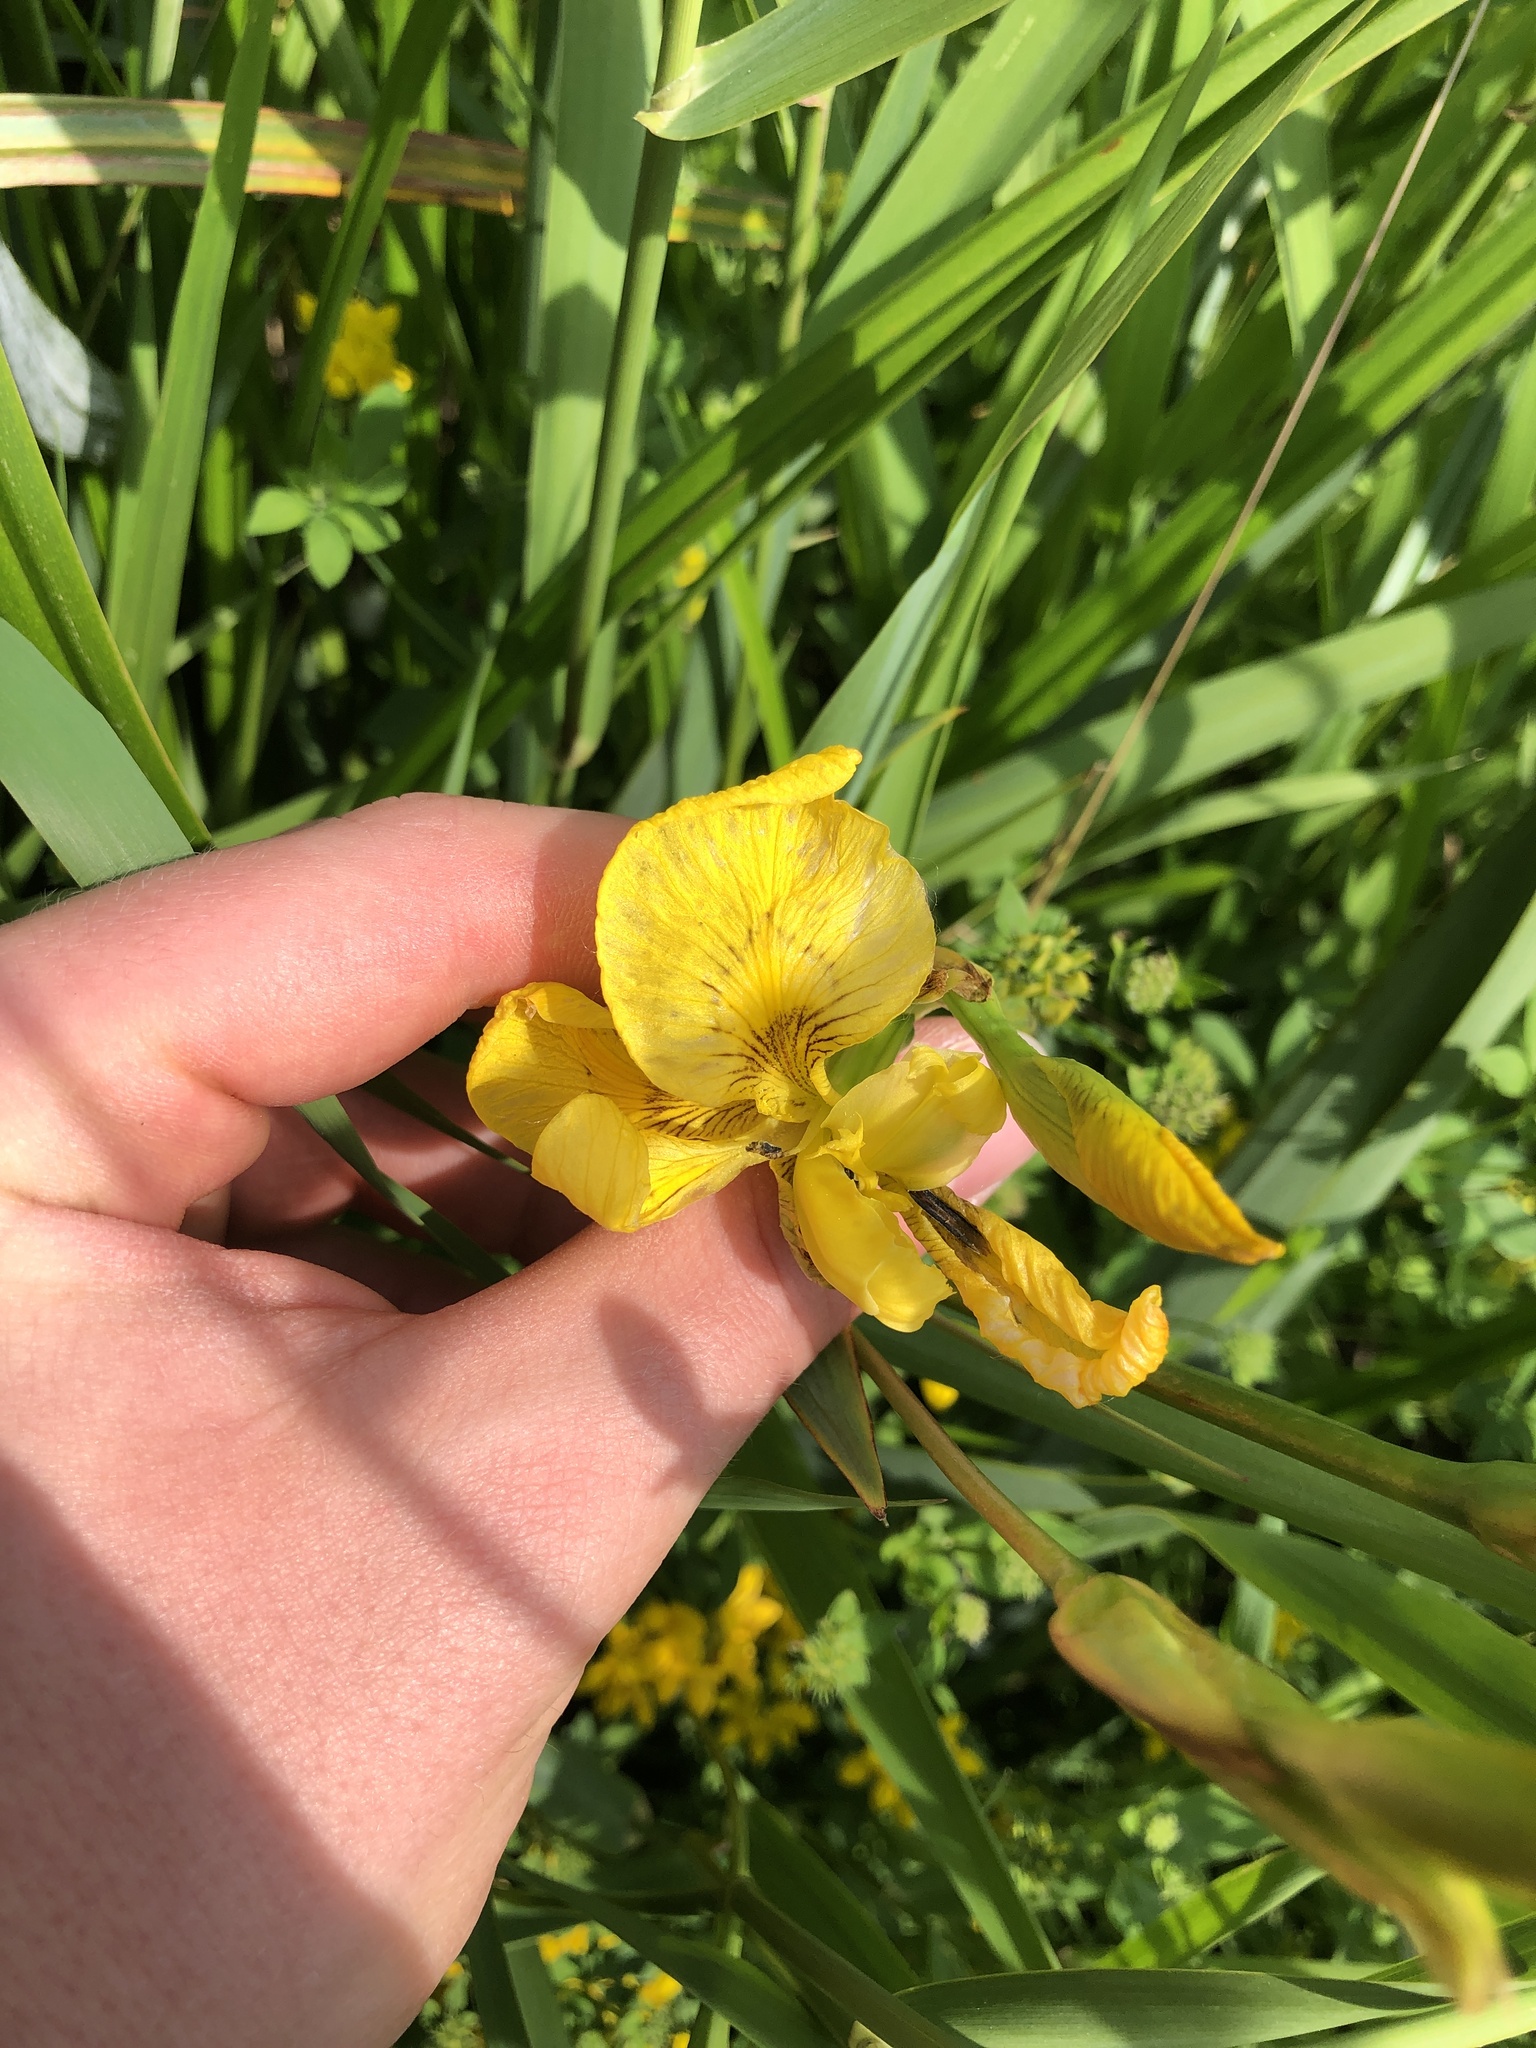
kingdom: Plantae
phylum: Tracheophyta
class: Liliopsida
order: Asparagales
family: Iridaceae
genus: Iris
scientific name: Iris pseudacorus
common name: Yellow flag
